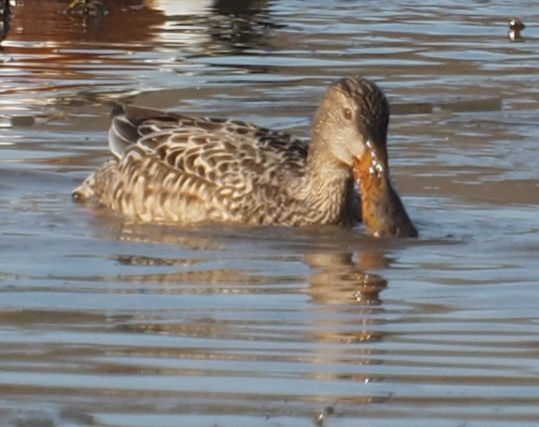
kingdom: Animalia
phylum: Chordata
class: Aves
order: Anseriformes
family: Anatidae
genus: Spatula
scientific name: Spatula clypeata
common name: Northern shoveler
